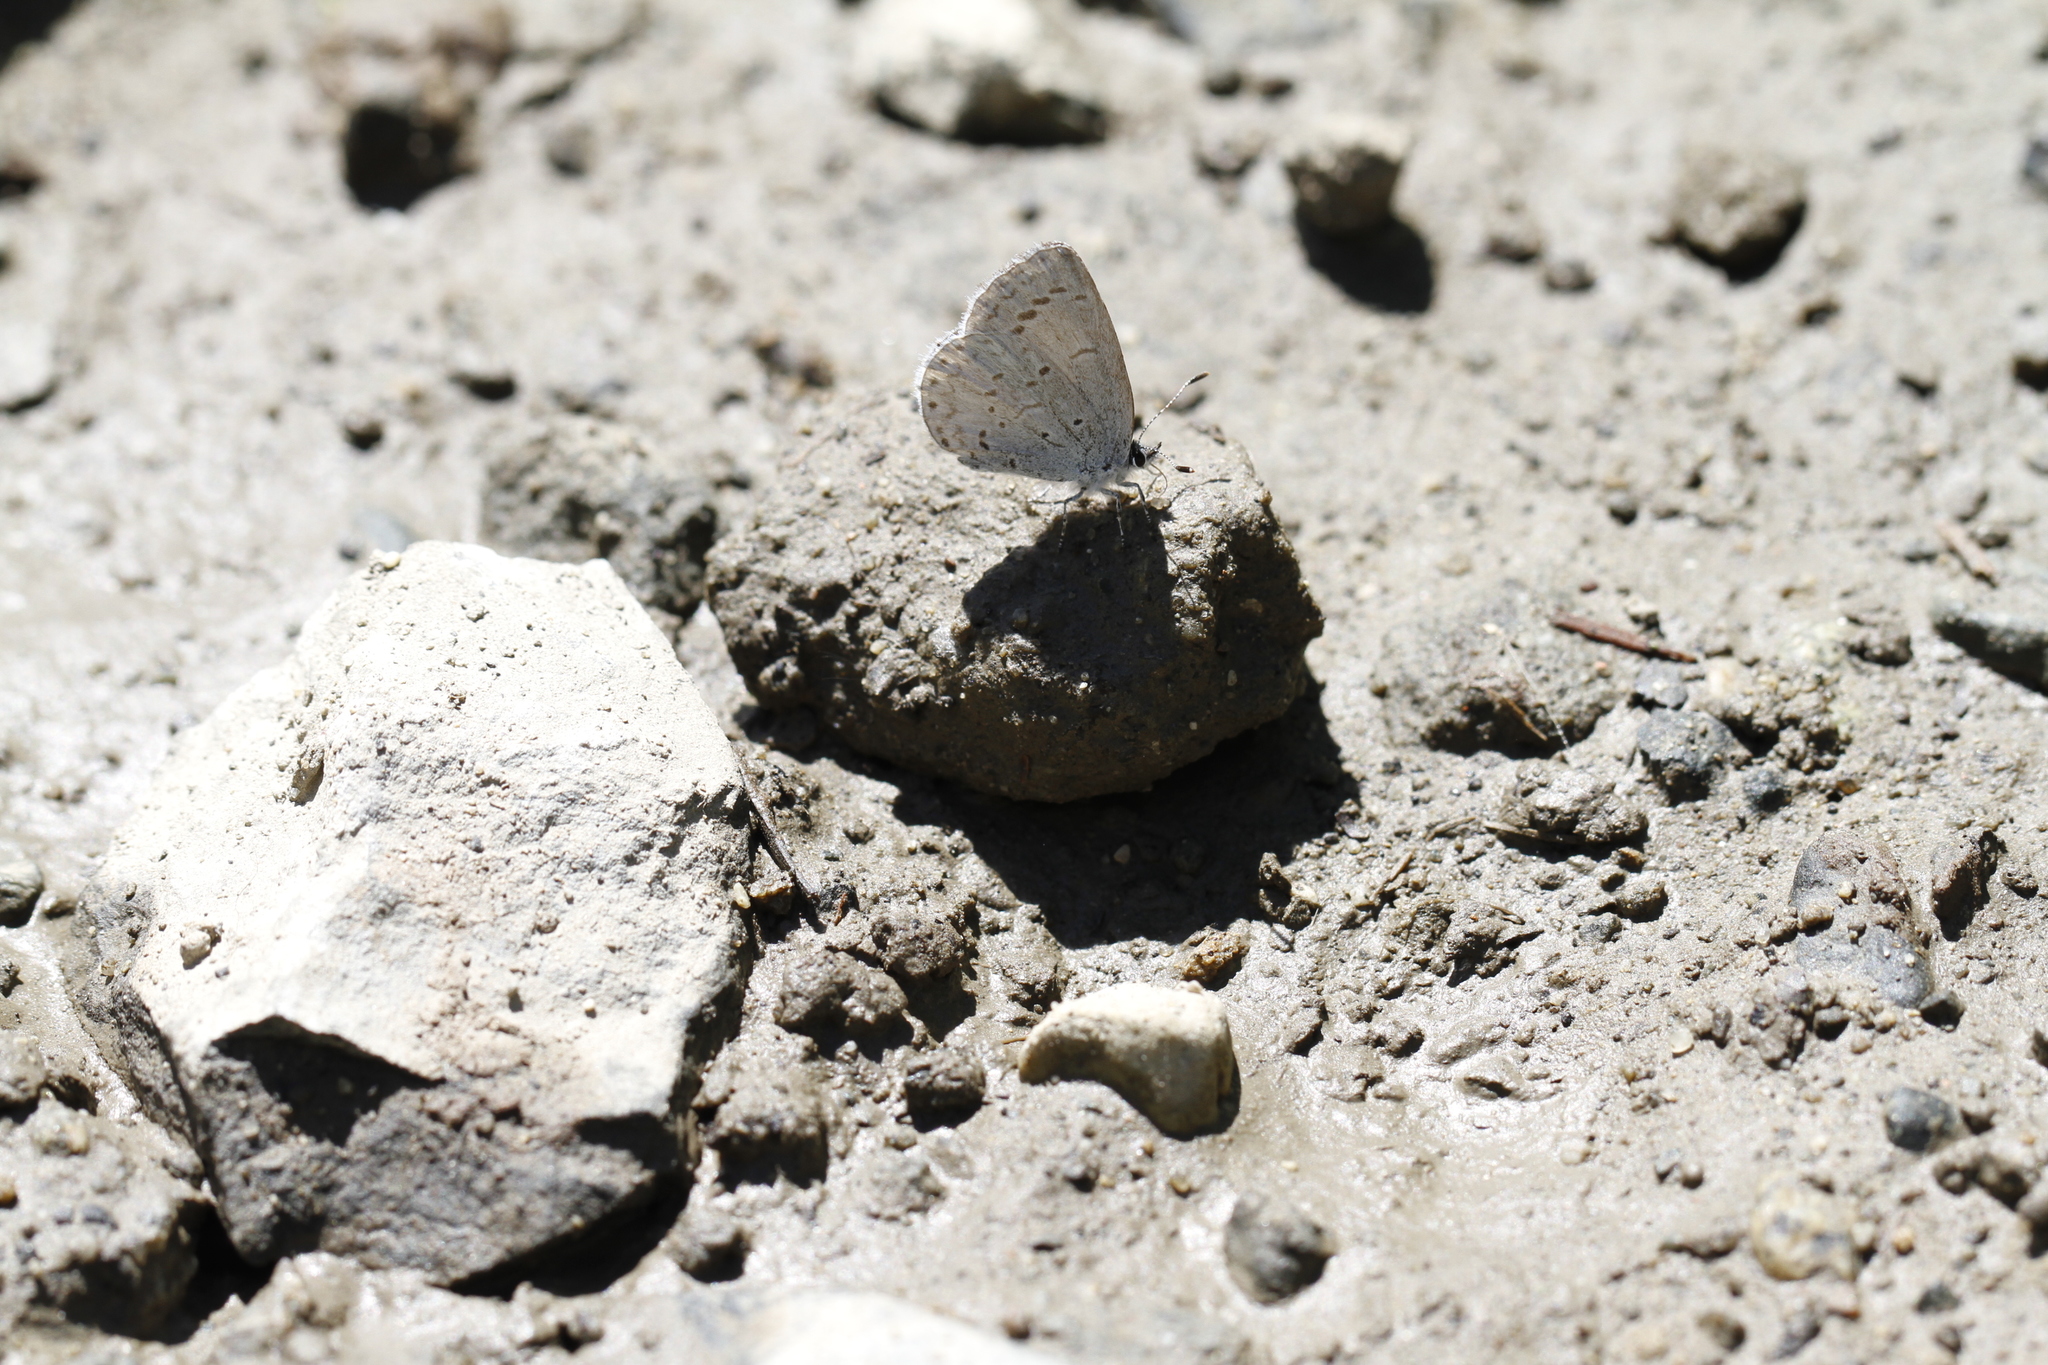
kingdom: Animalia
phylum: Arthropoda
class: Insecta
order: Lepidoptera
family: Lycaenidae
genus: Celastrina
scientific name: Celastrina ladon
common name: Spring azure
